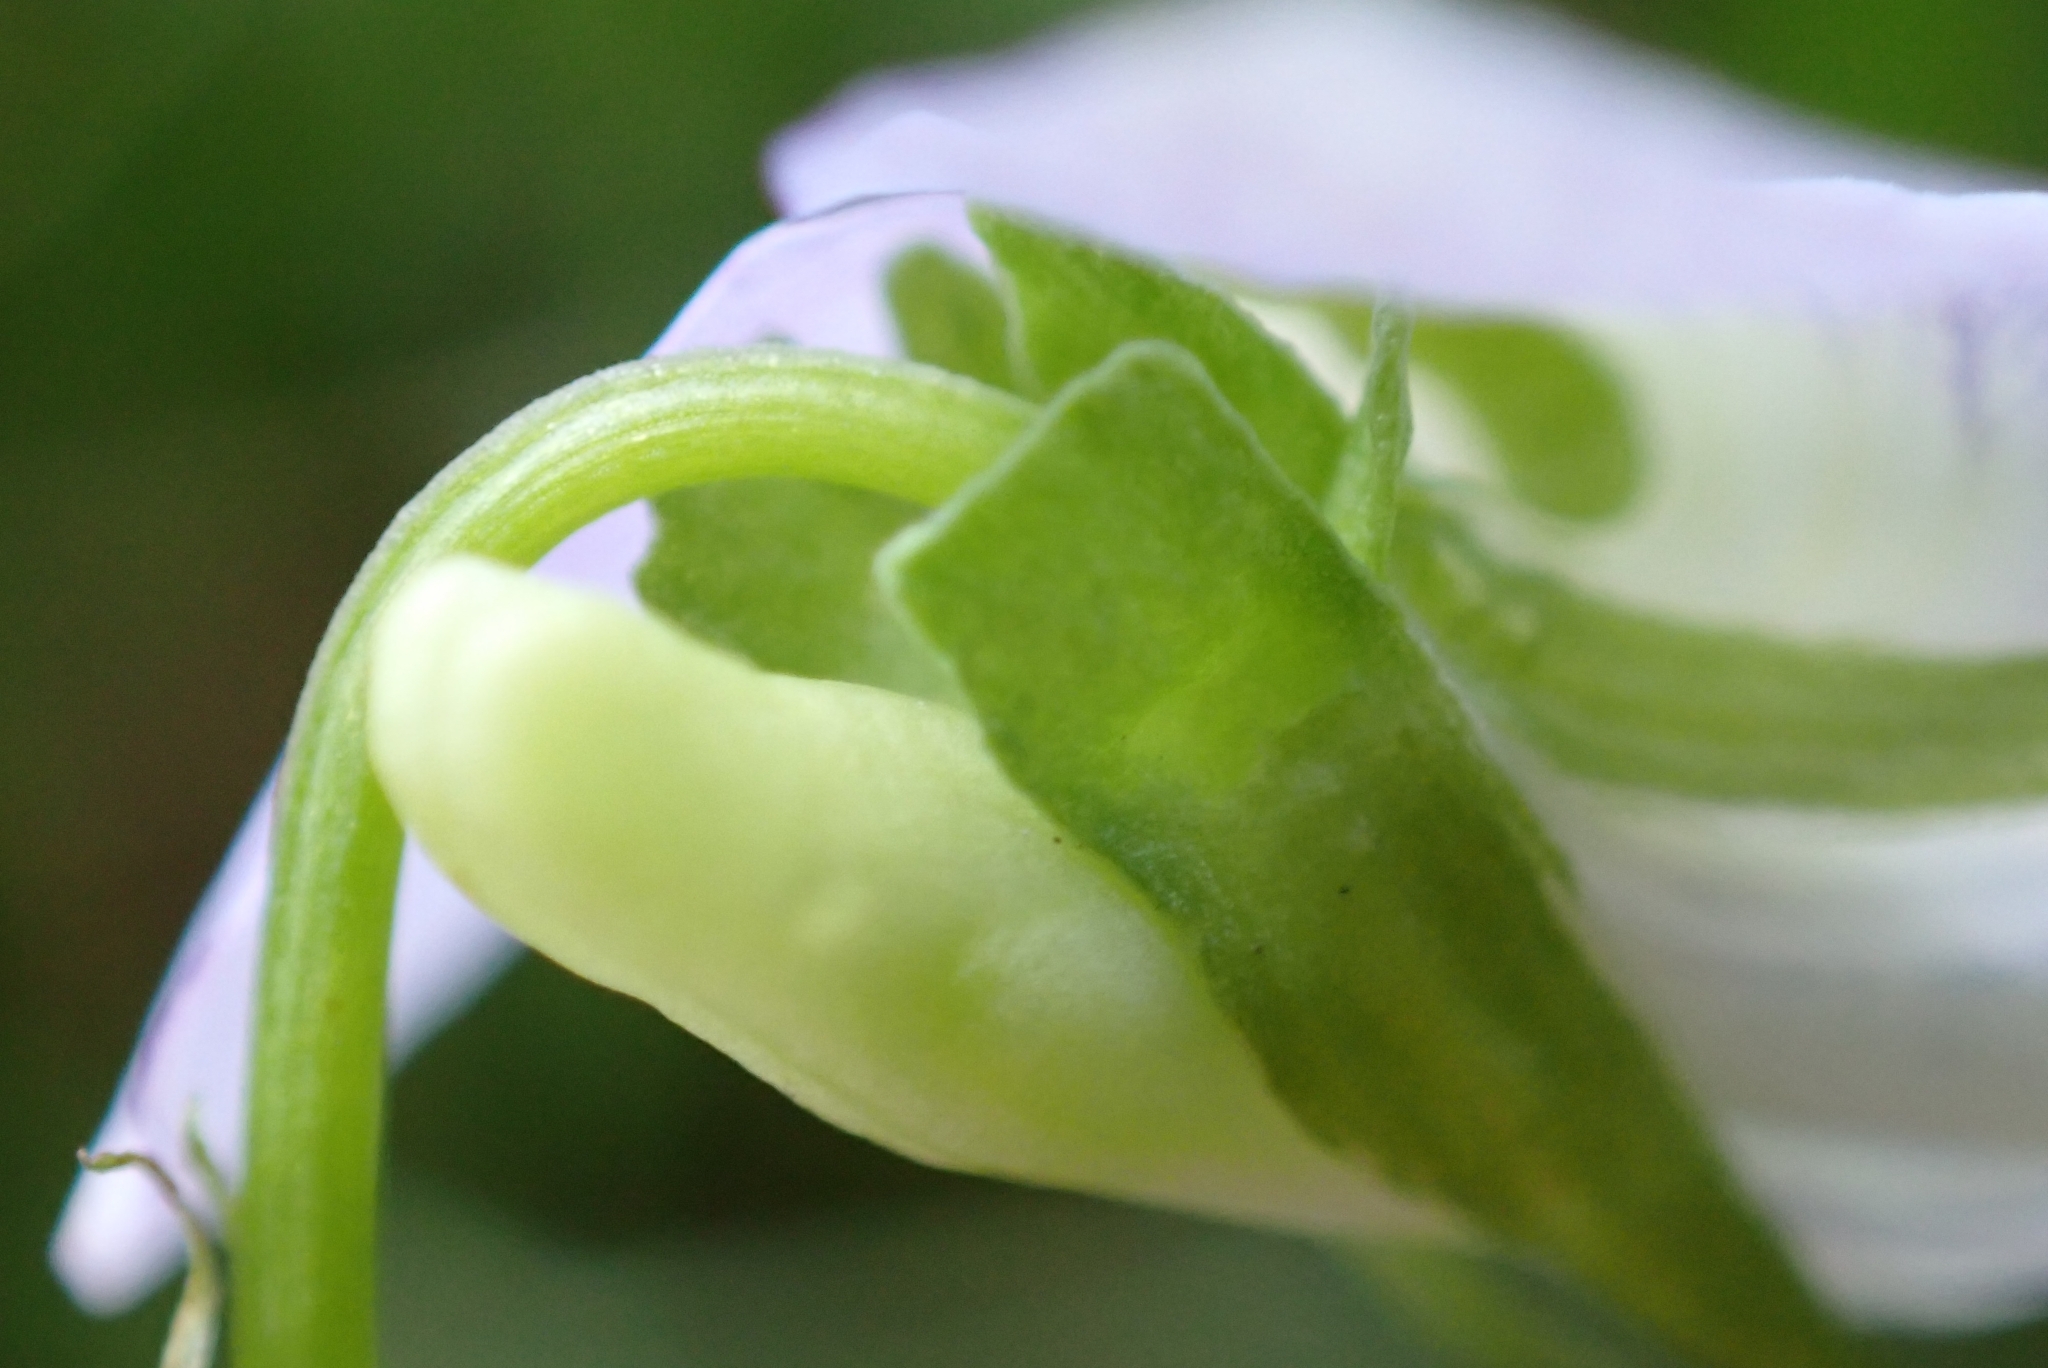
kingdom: Plantae
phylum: Tracheophyta
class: Magnoliopsida
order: Malpighiales
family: Violaceae
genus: Viola
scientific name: Viola canina
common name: Heath dog-violet
